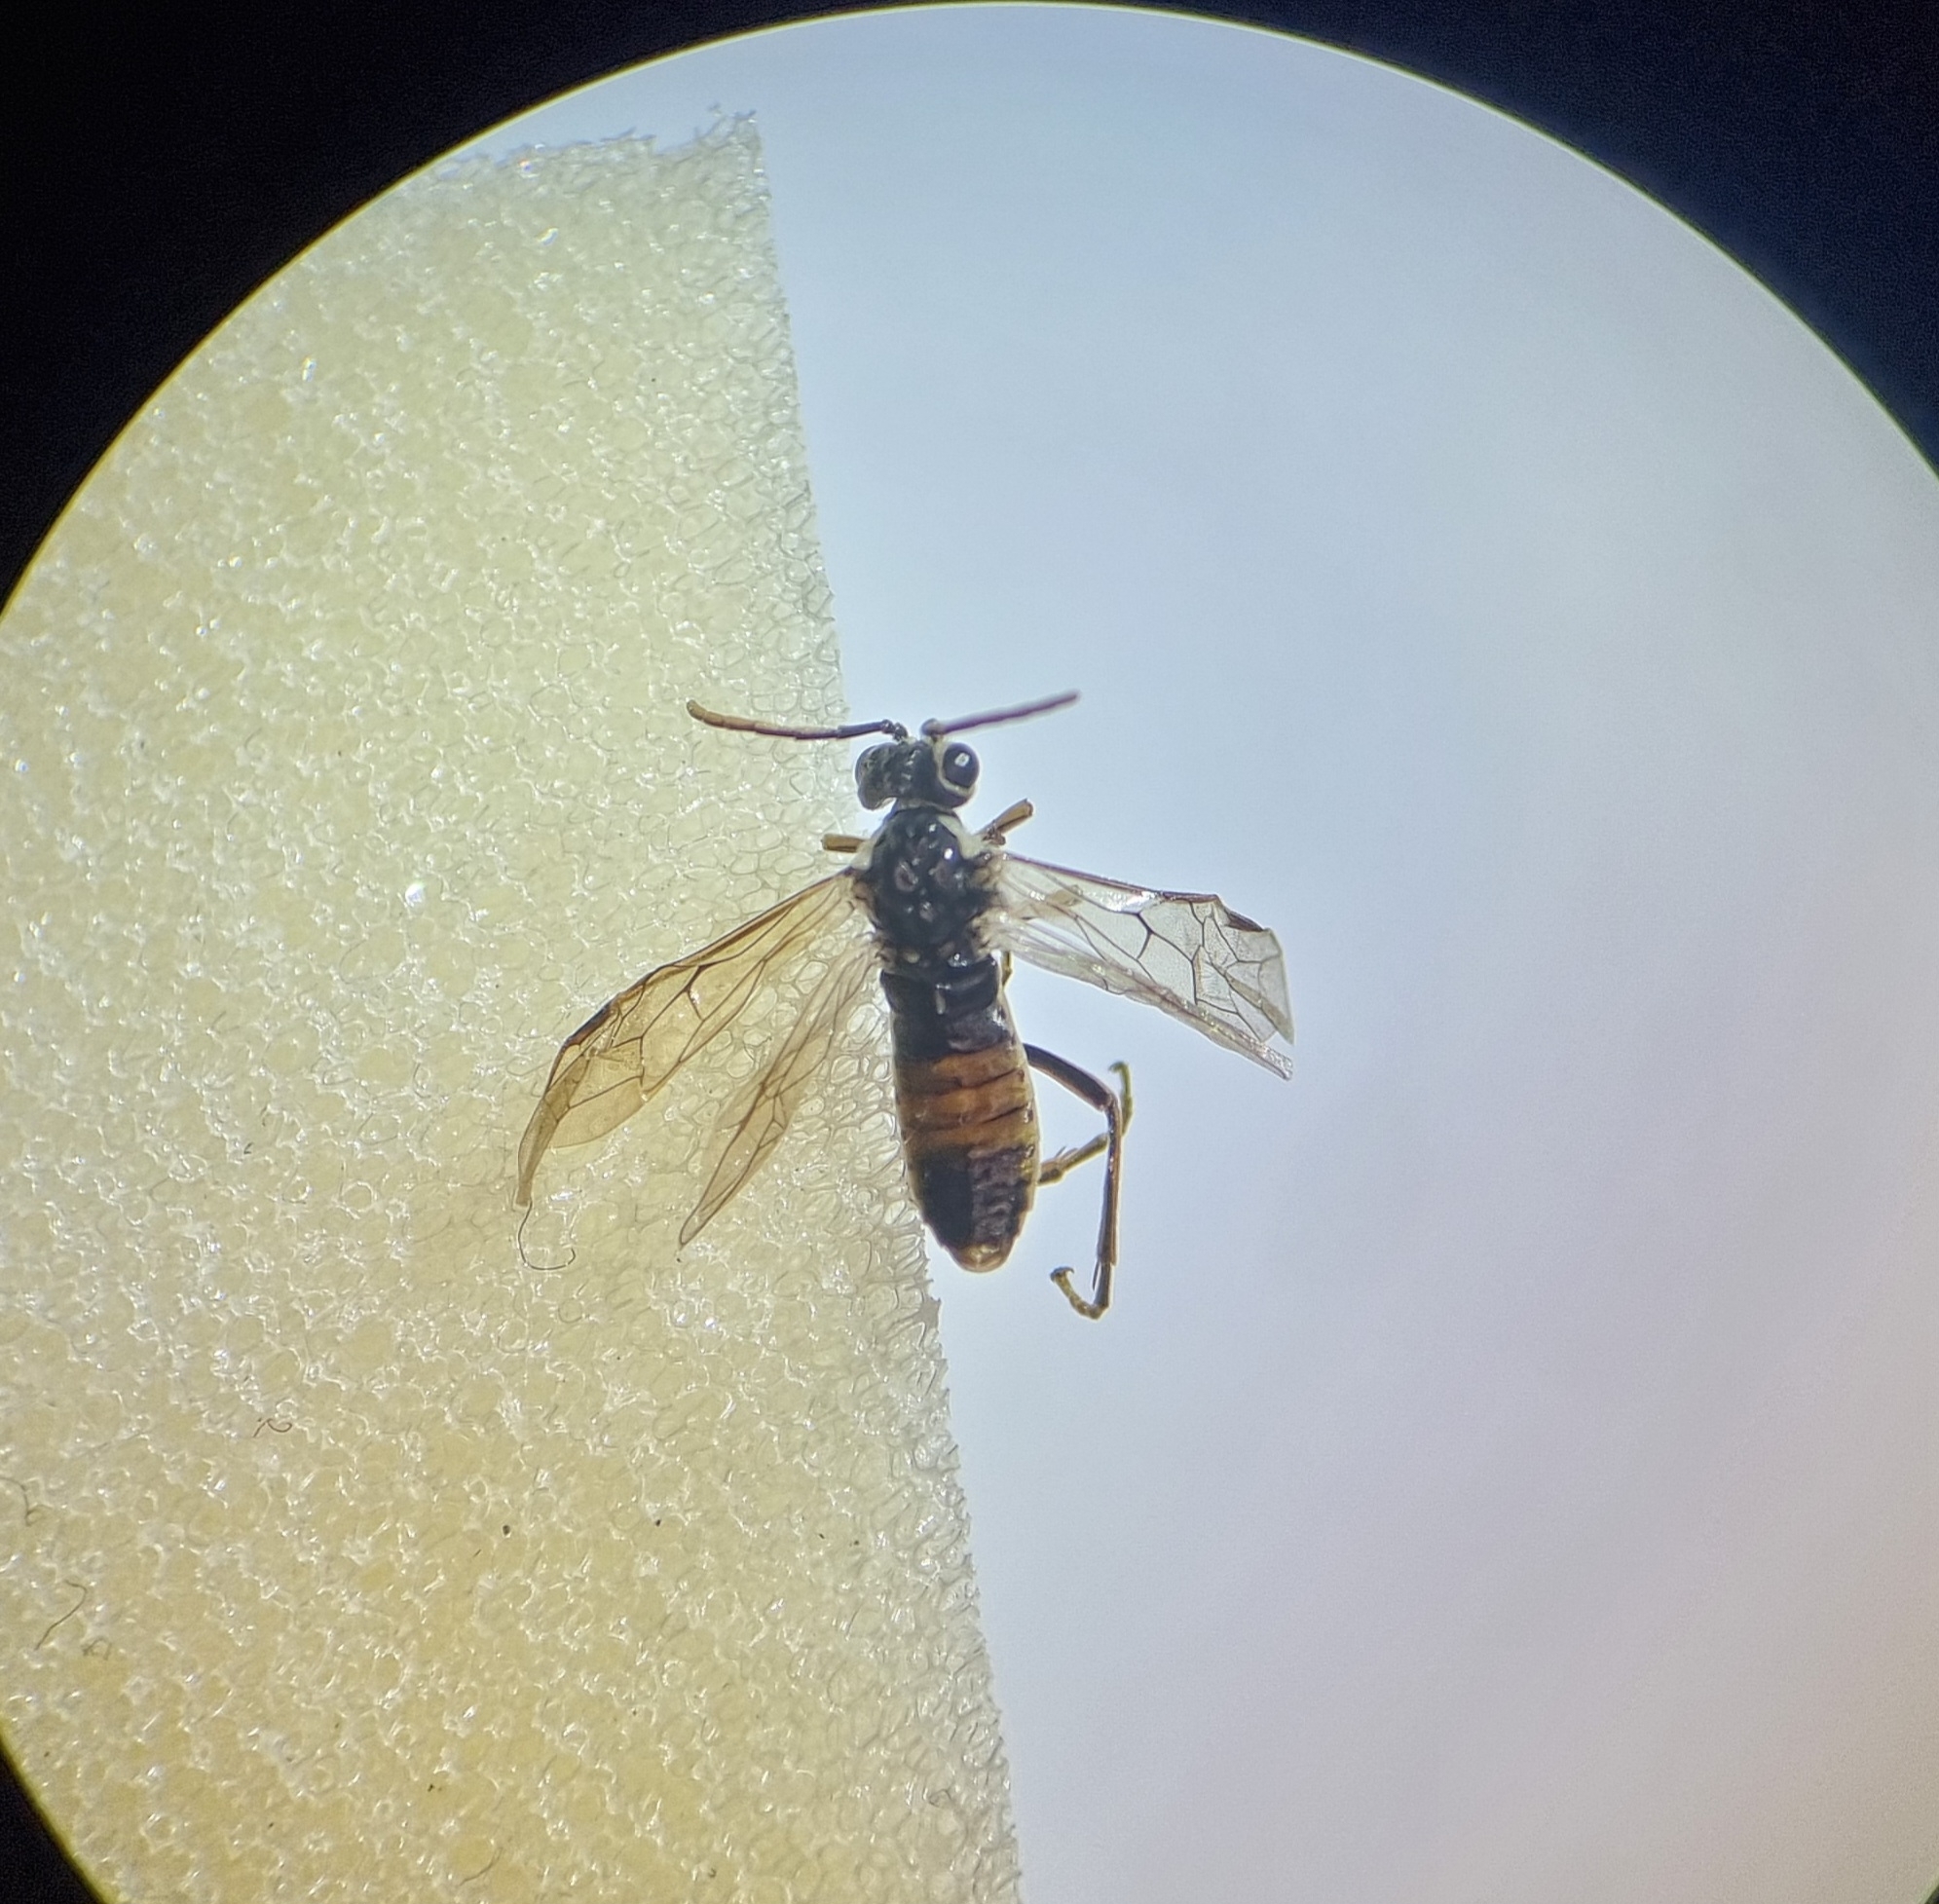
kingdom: Animalia
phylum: Arthropoda
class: Insecta
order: Hymenoptera
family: Tenthredinidae
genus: Aglaostigma
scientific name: Aglaostigma fulvipes
